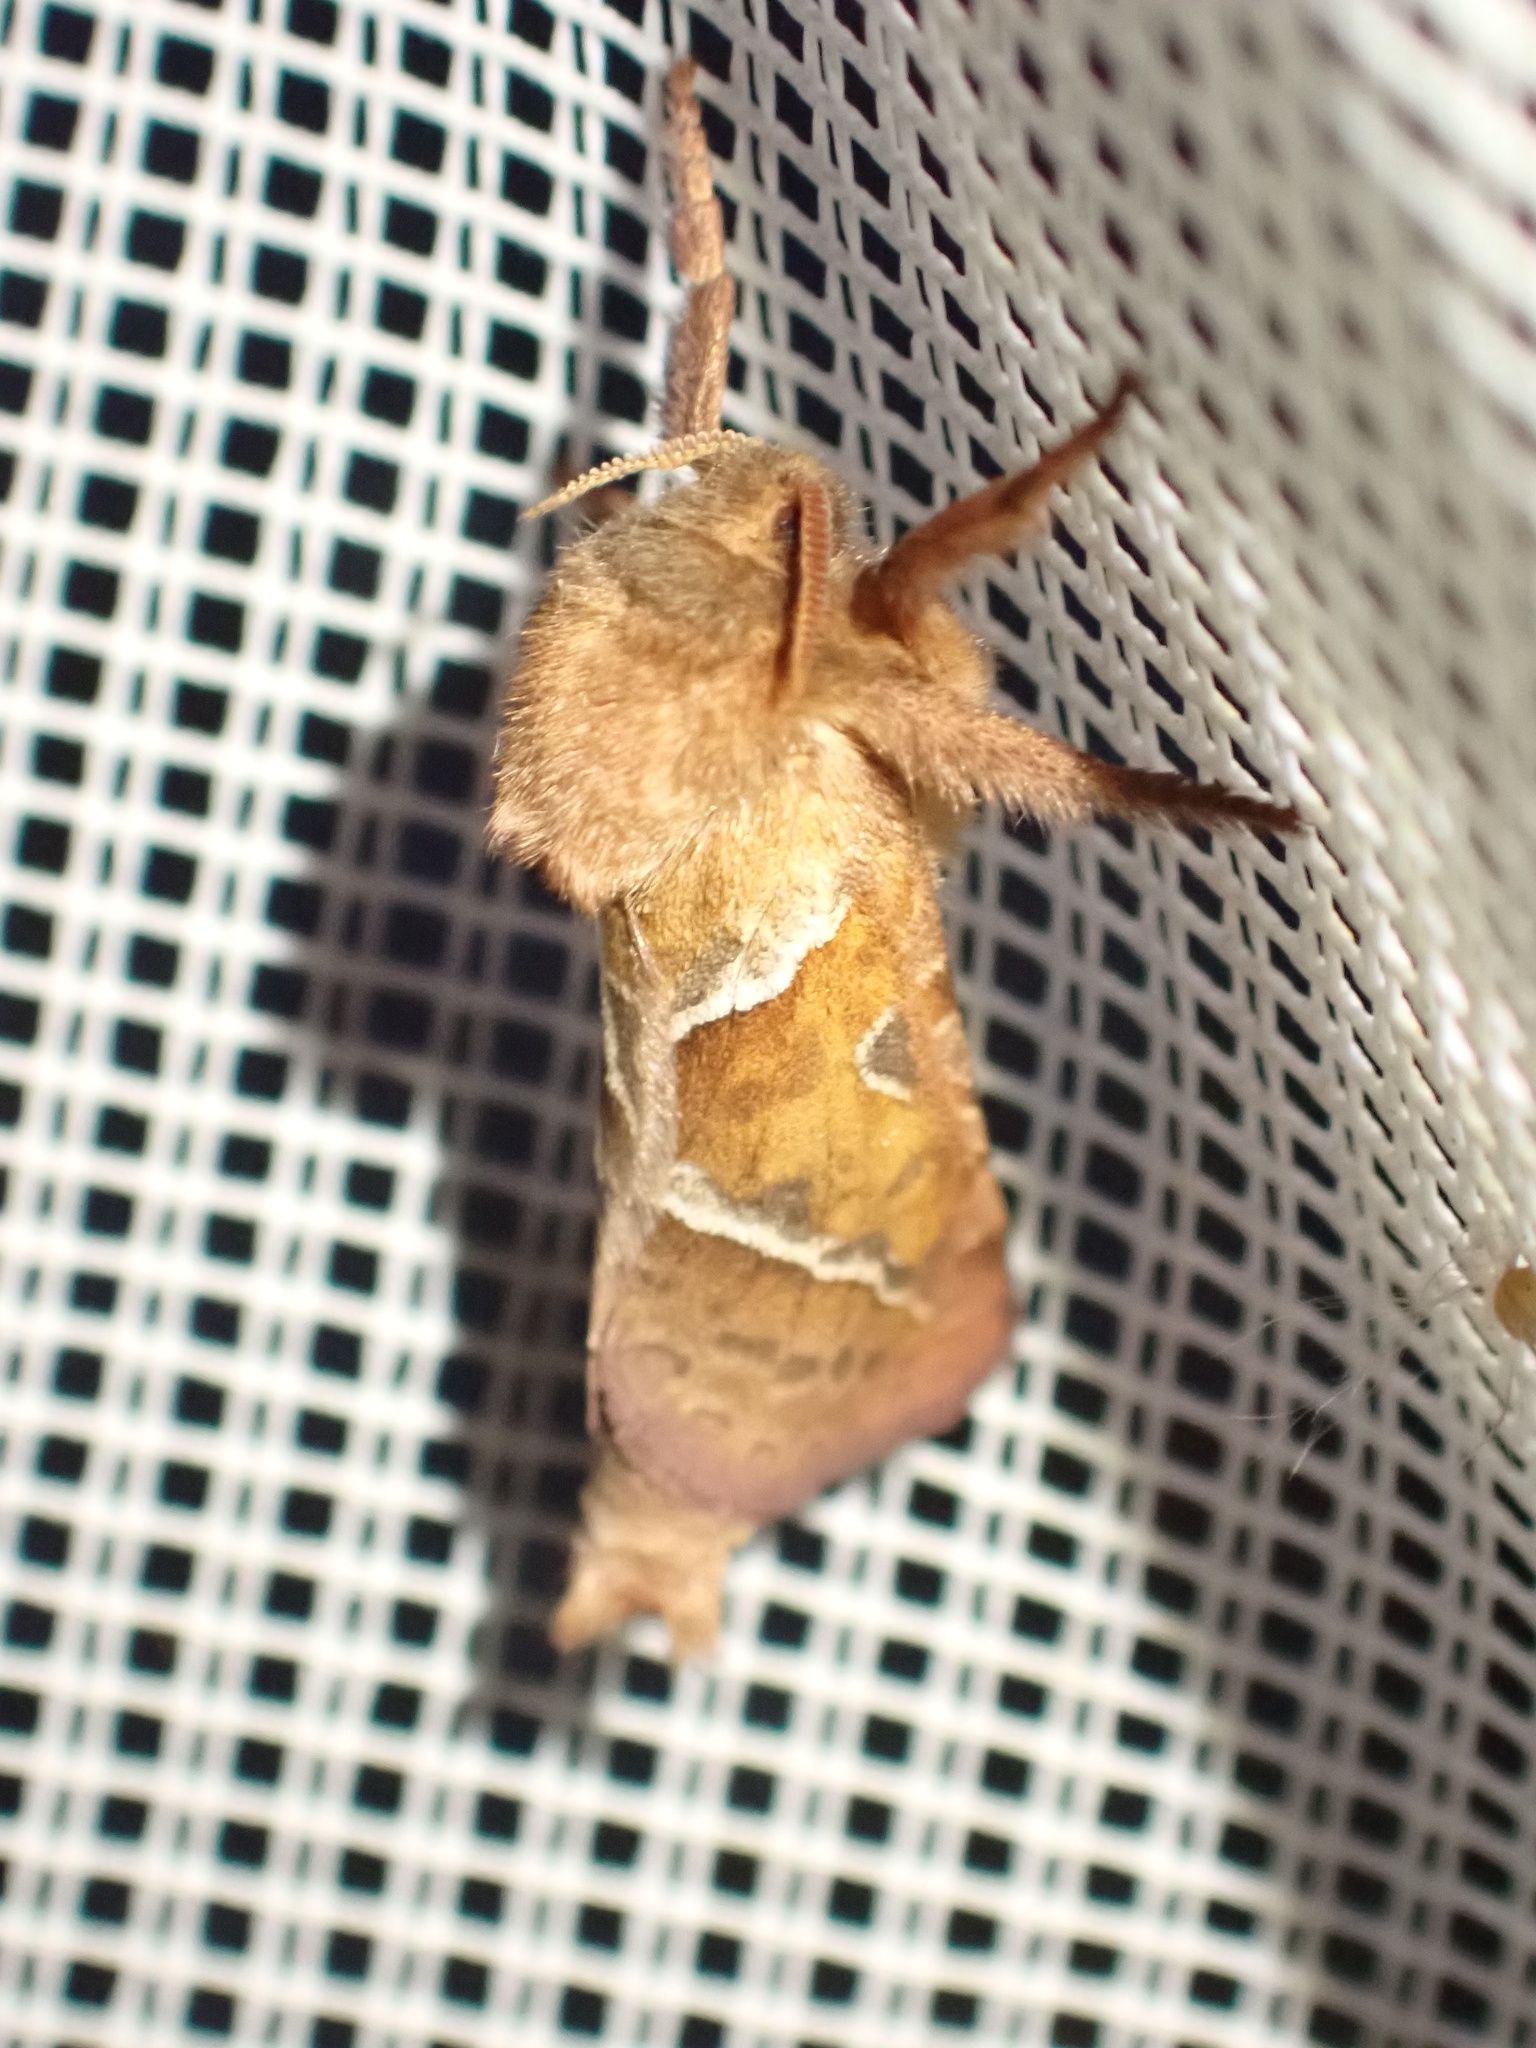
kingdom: Animalia
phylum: Arthropoda
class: Insecta
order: Lepidoptera
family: Hepialidae
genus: Triodia
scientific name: Triodia sylvina
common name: Orange swift
